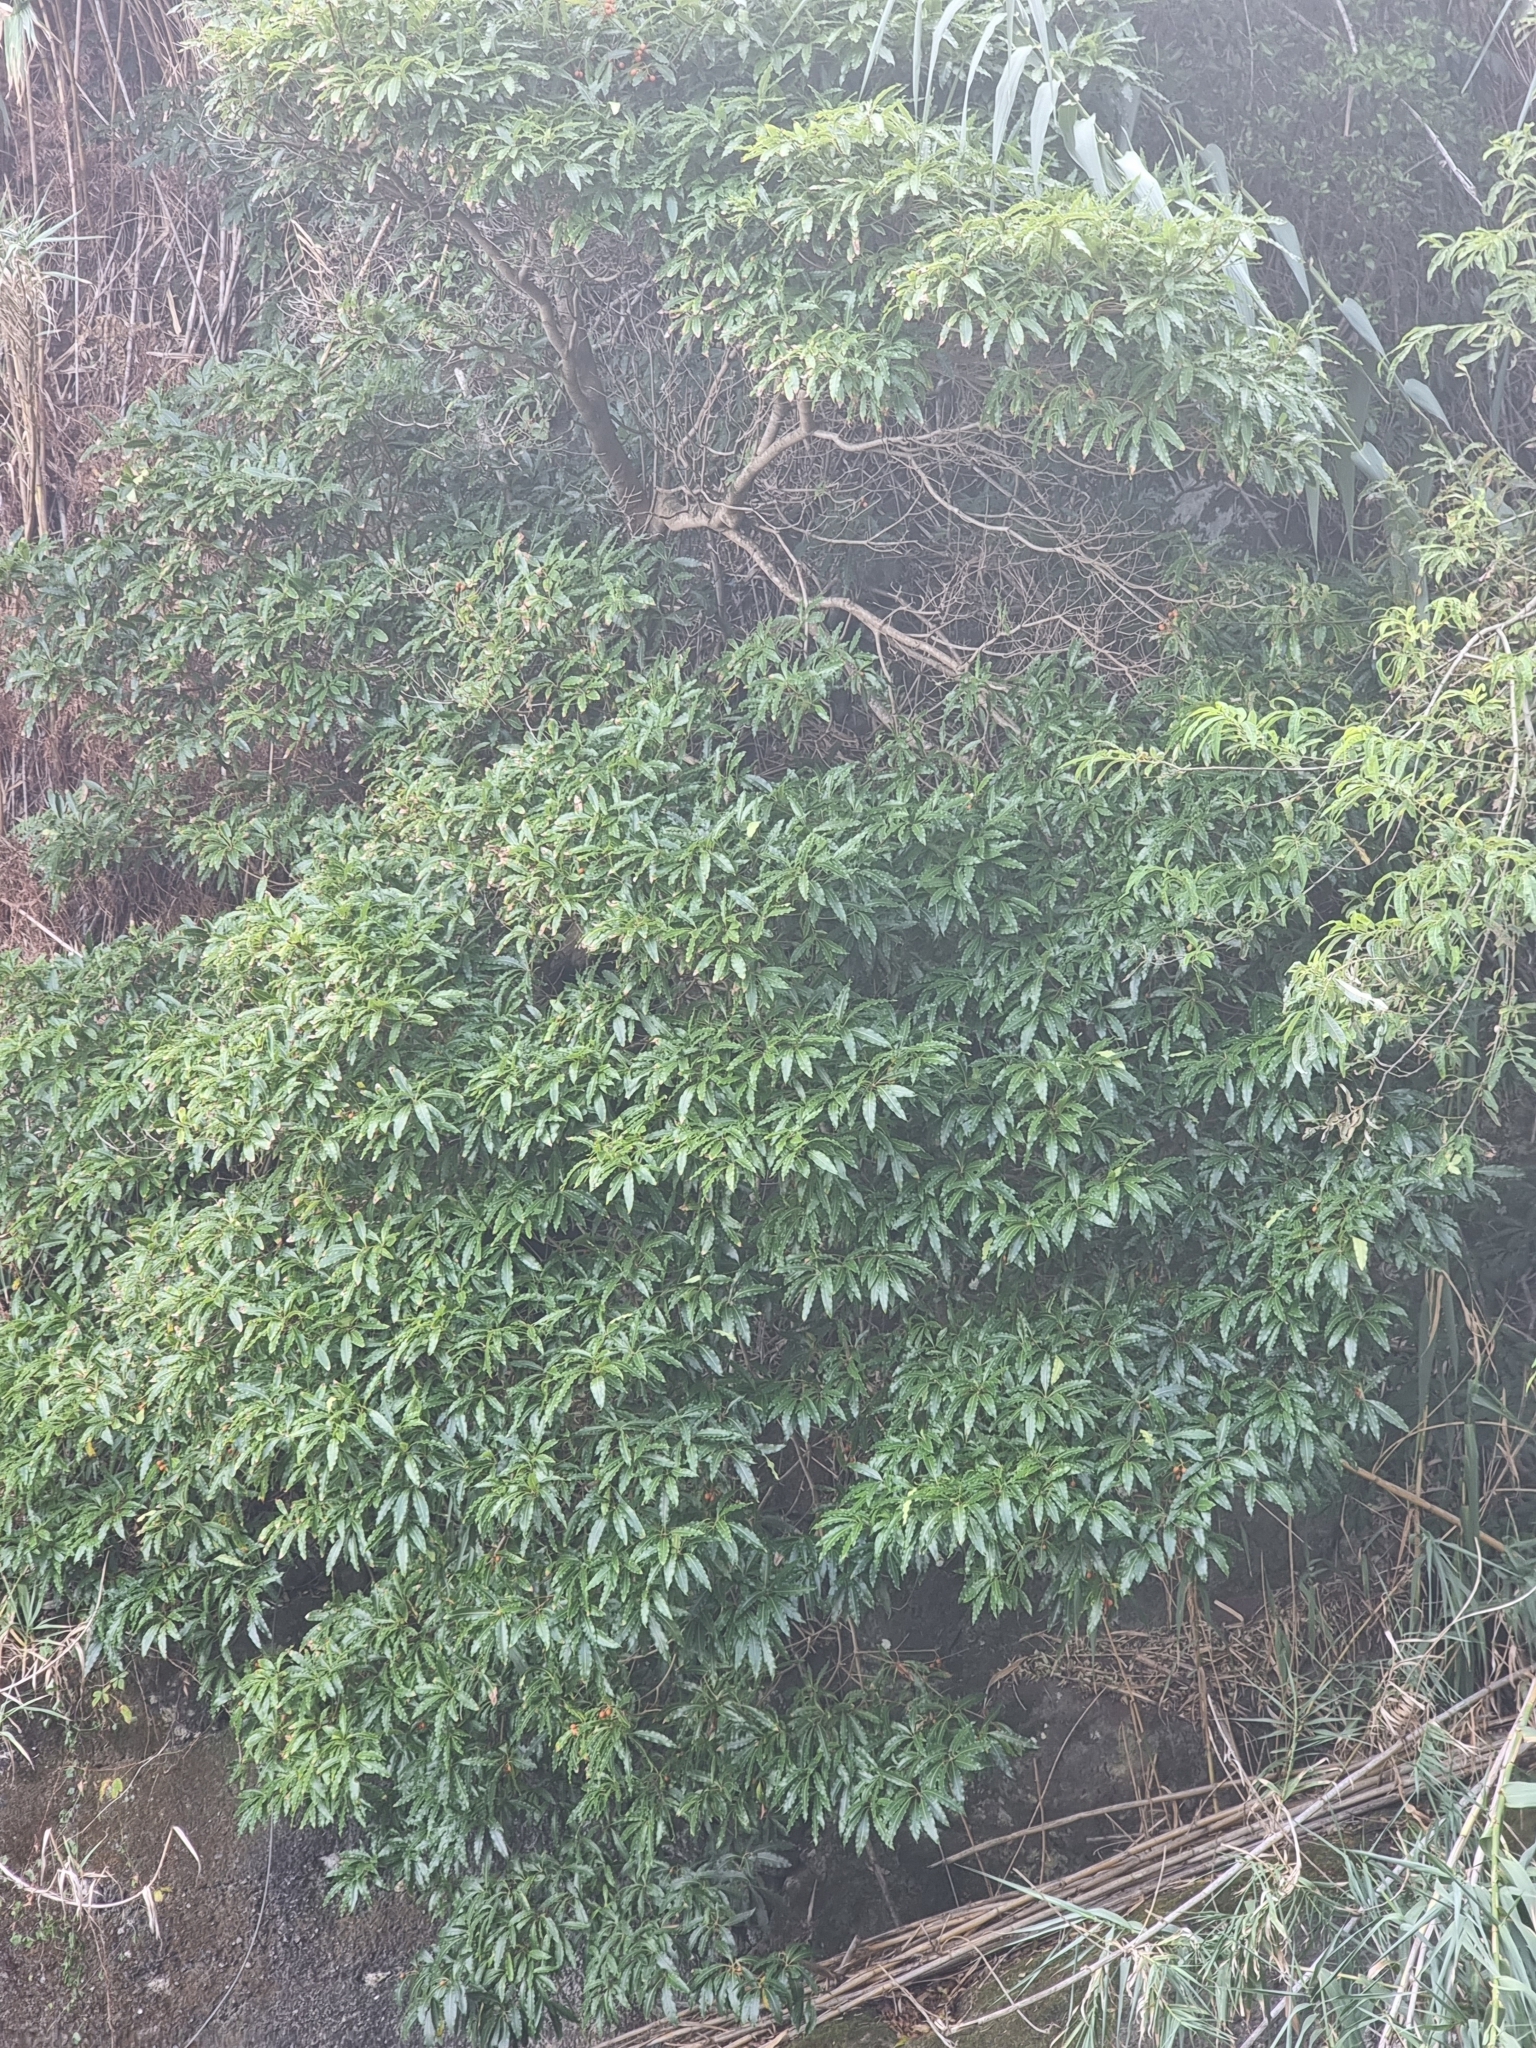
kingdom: Plantae
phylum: Tracheophyta
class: Magnoliopsida
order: Apiales
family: Pittosporaceae
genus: Pittosporum
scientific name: Pittosporum undulatum
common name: Australian cheesewood
